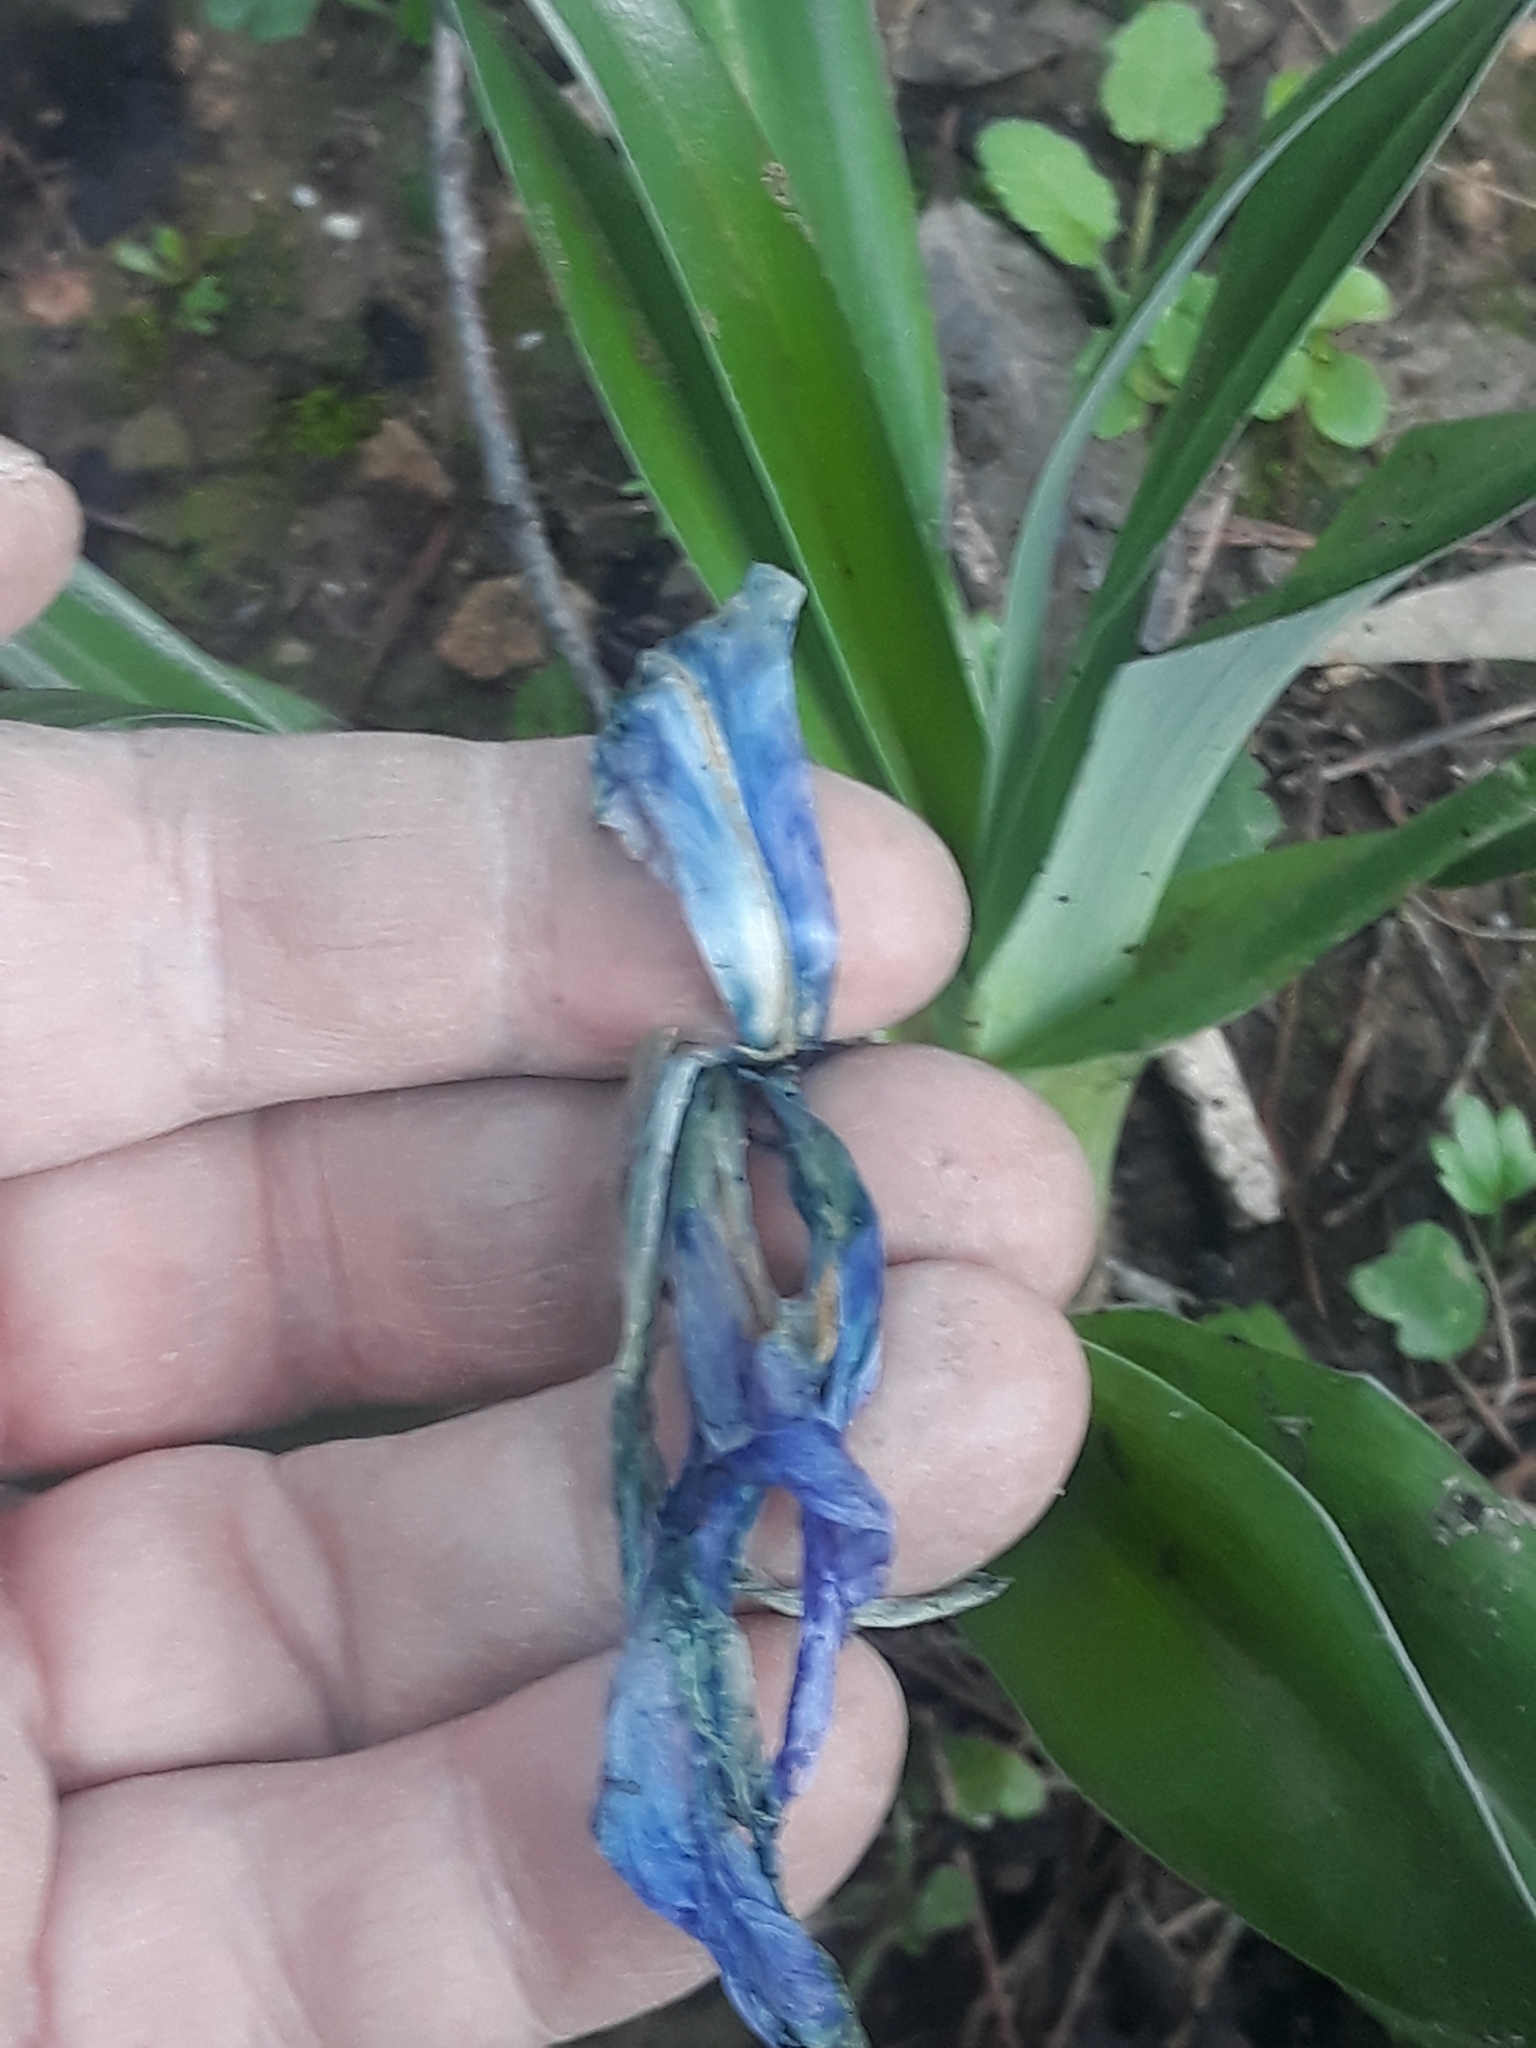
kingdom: Plantae
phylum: Tracheophyta
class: Liliopsida
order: Asparagales
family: Iridaceae
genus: Iris
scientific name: Iris planifolia
